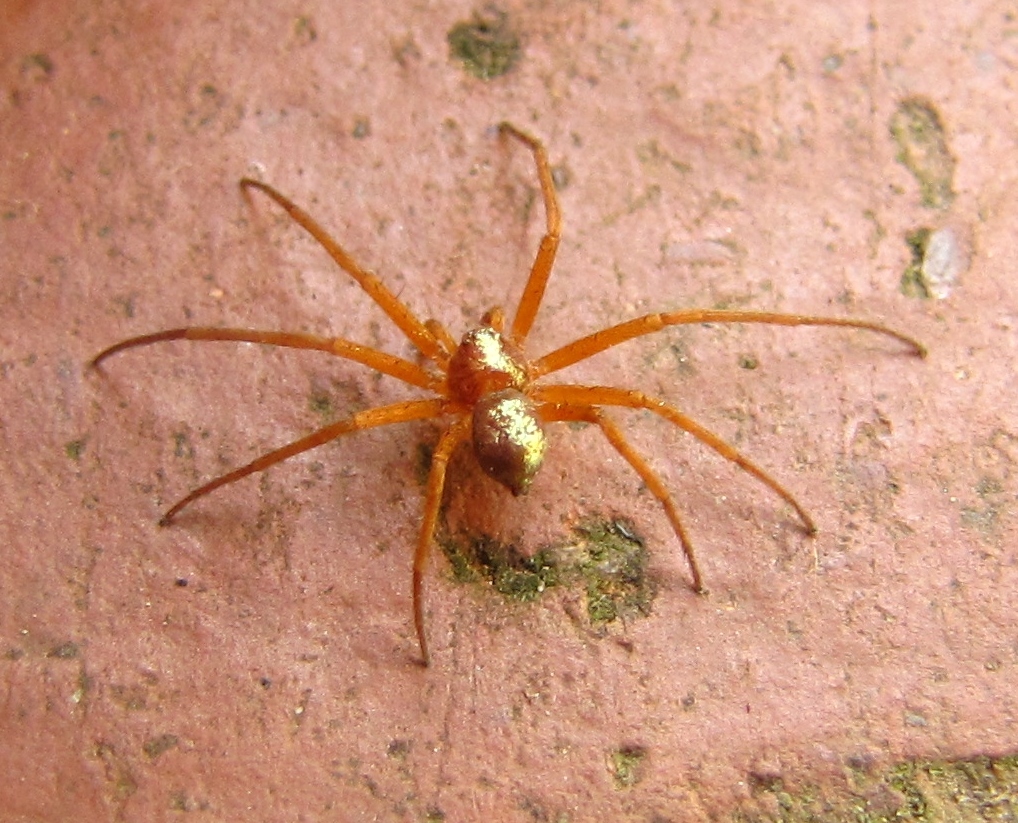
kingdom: Animalia
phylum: Arthropoda
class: Arachnida
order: Araneae
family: Philodromidae
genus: Philodromus
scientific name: Philodromus marxi
